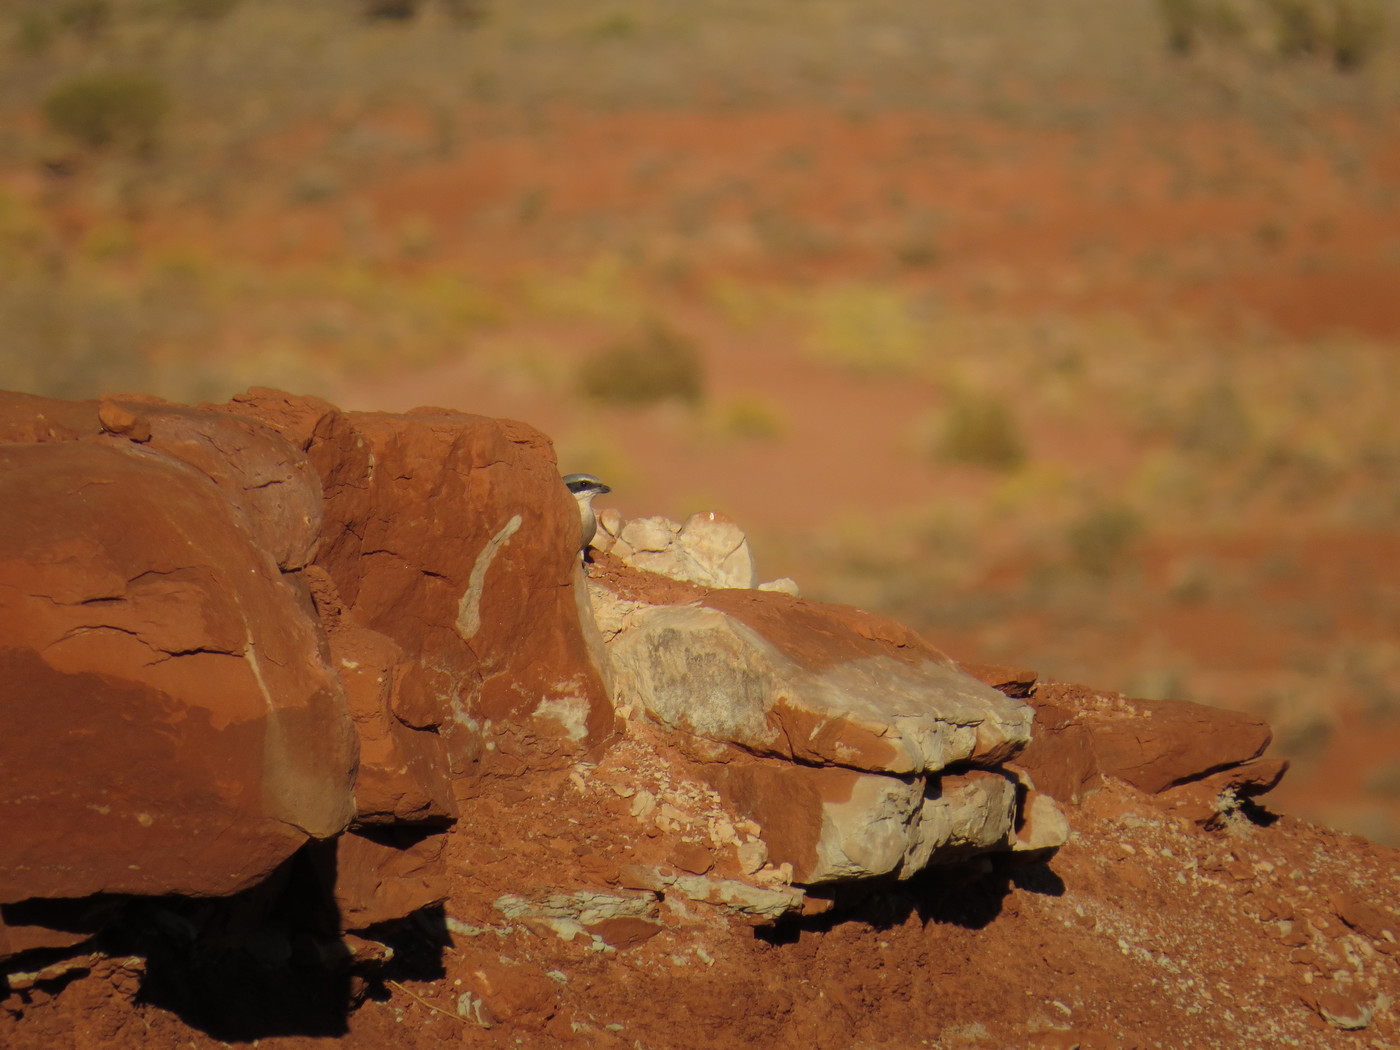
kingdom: Animalia
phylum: Chordata
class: Aves
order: Passeriformes
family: Laniidae
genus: Lanius
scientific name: Lanius ludovicianus
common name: Loggerhead shrike
